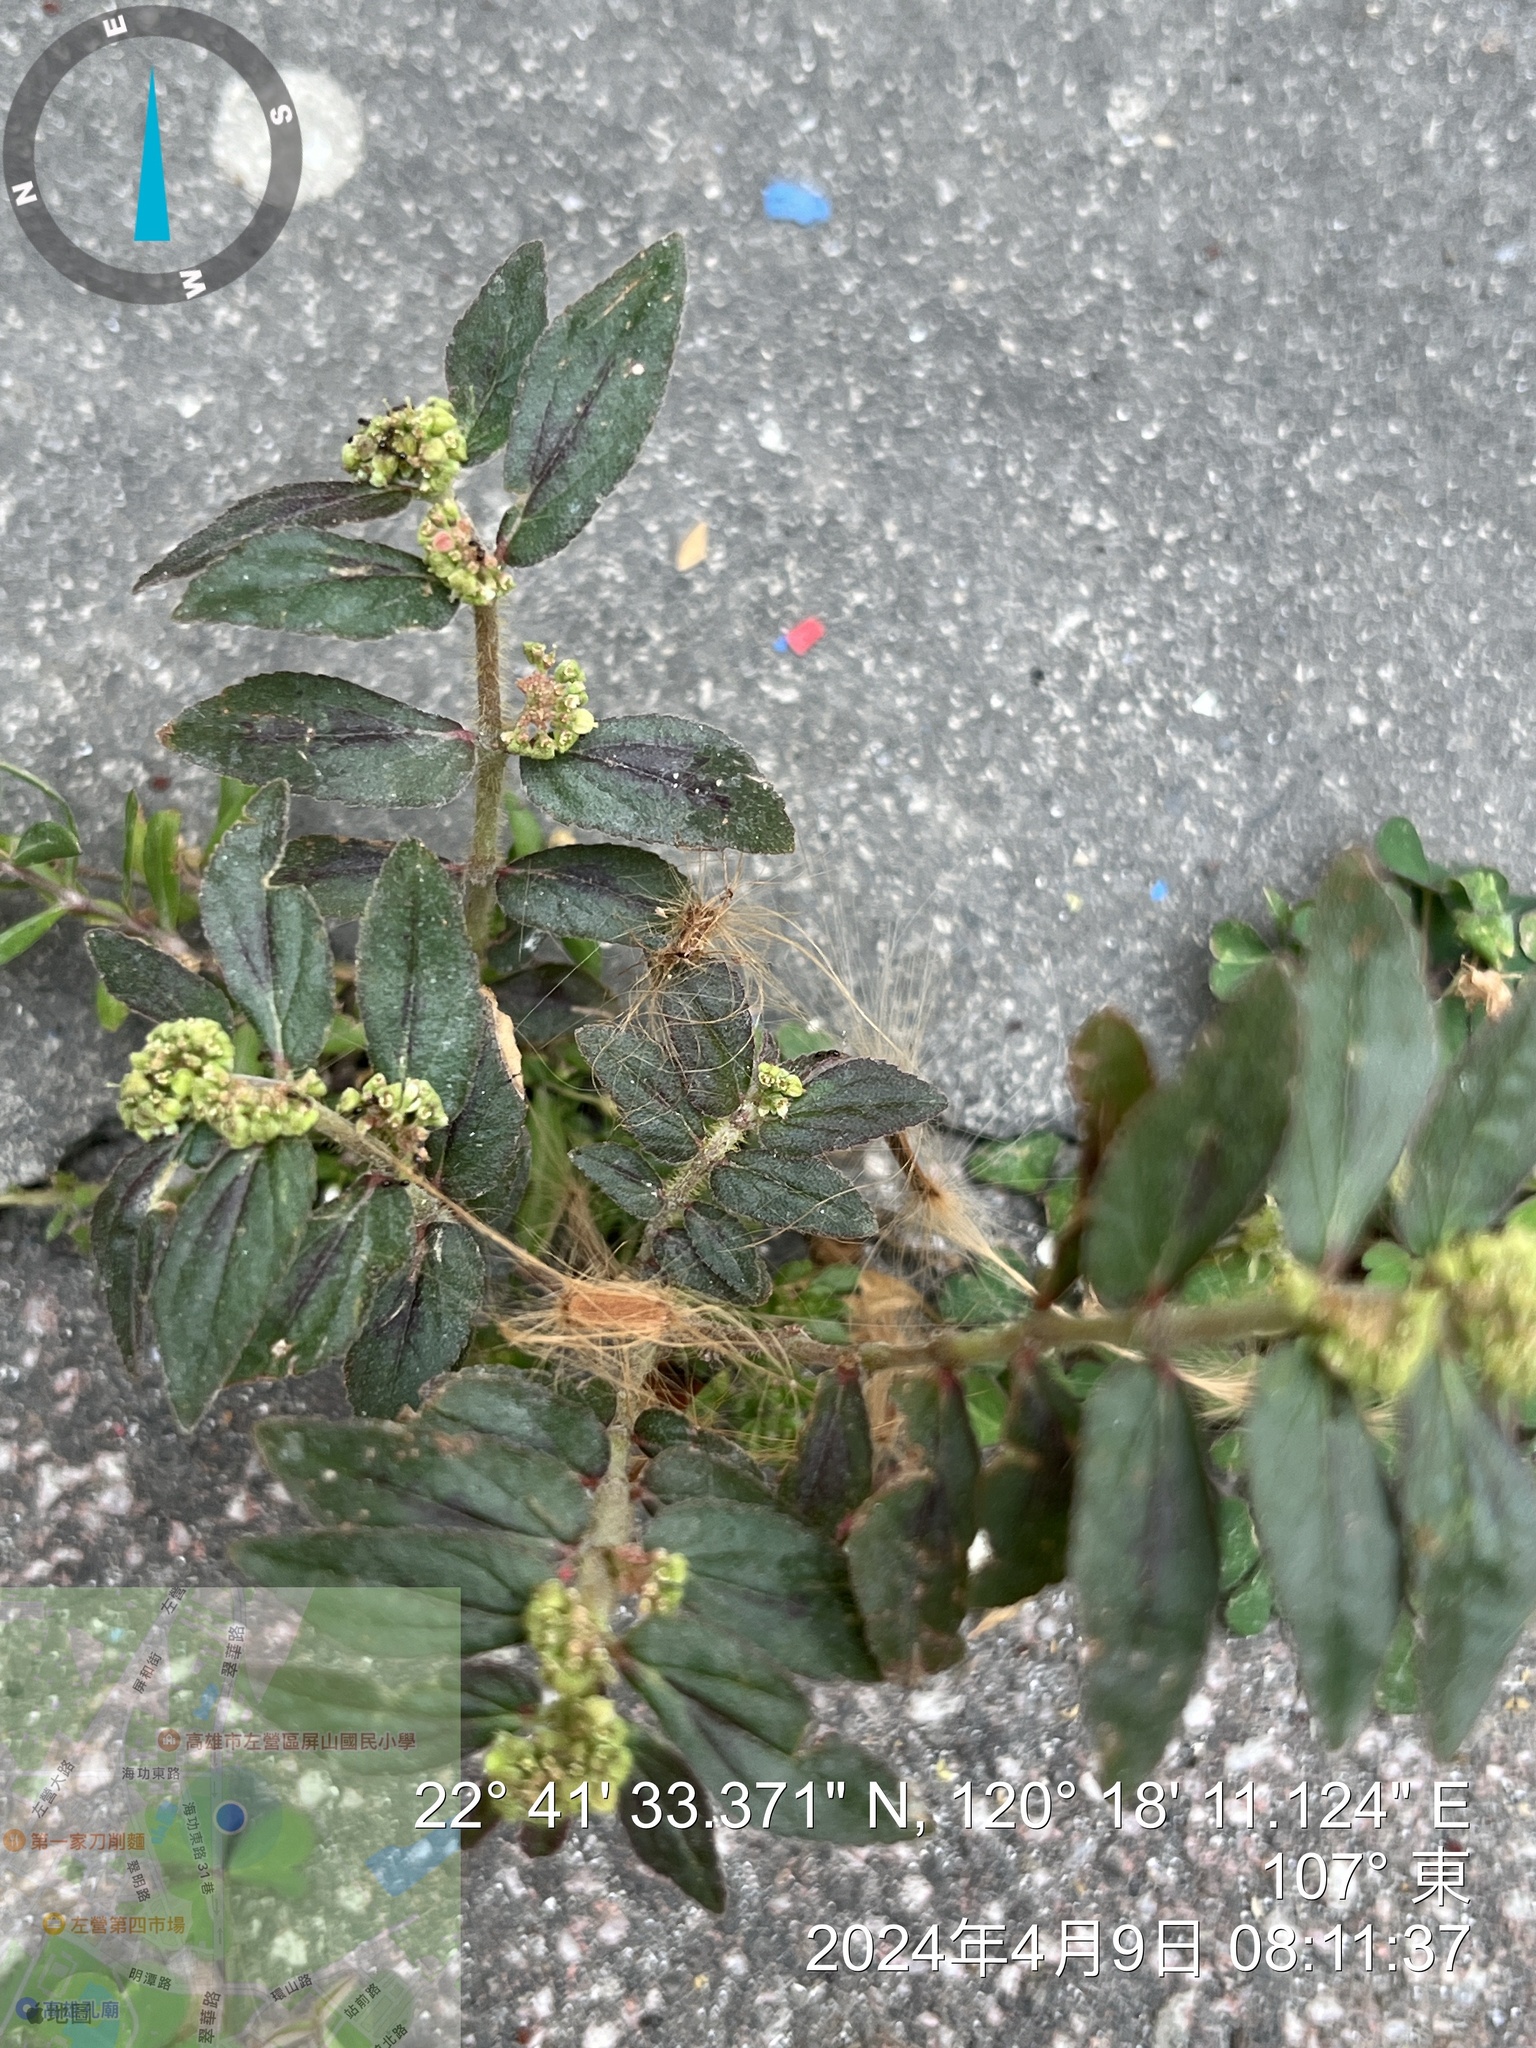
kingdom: Plantae
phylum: Tracheophyta
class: Magnoliopsida
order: Malpighiales
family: Euphorbiaceae
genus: Euphorbia
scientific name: Euphorbia hirta
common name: Pillpod sandmat
